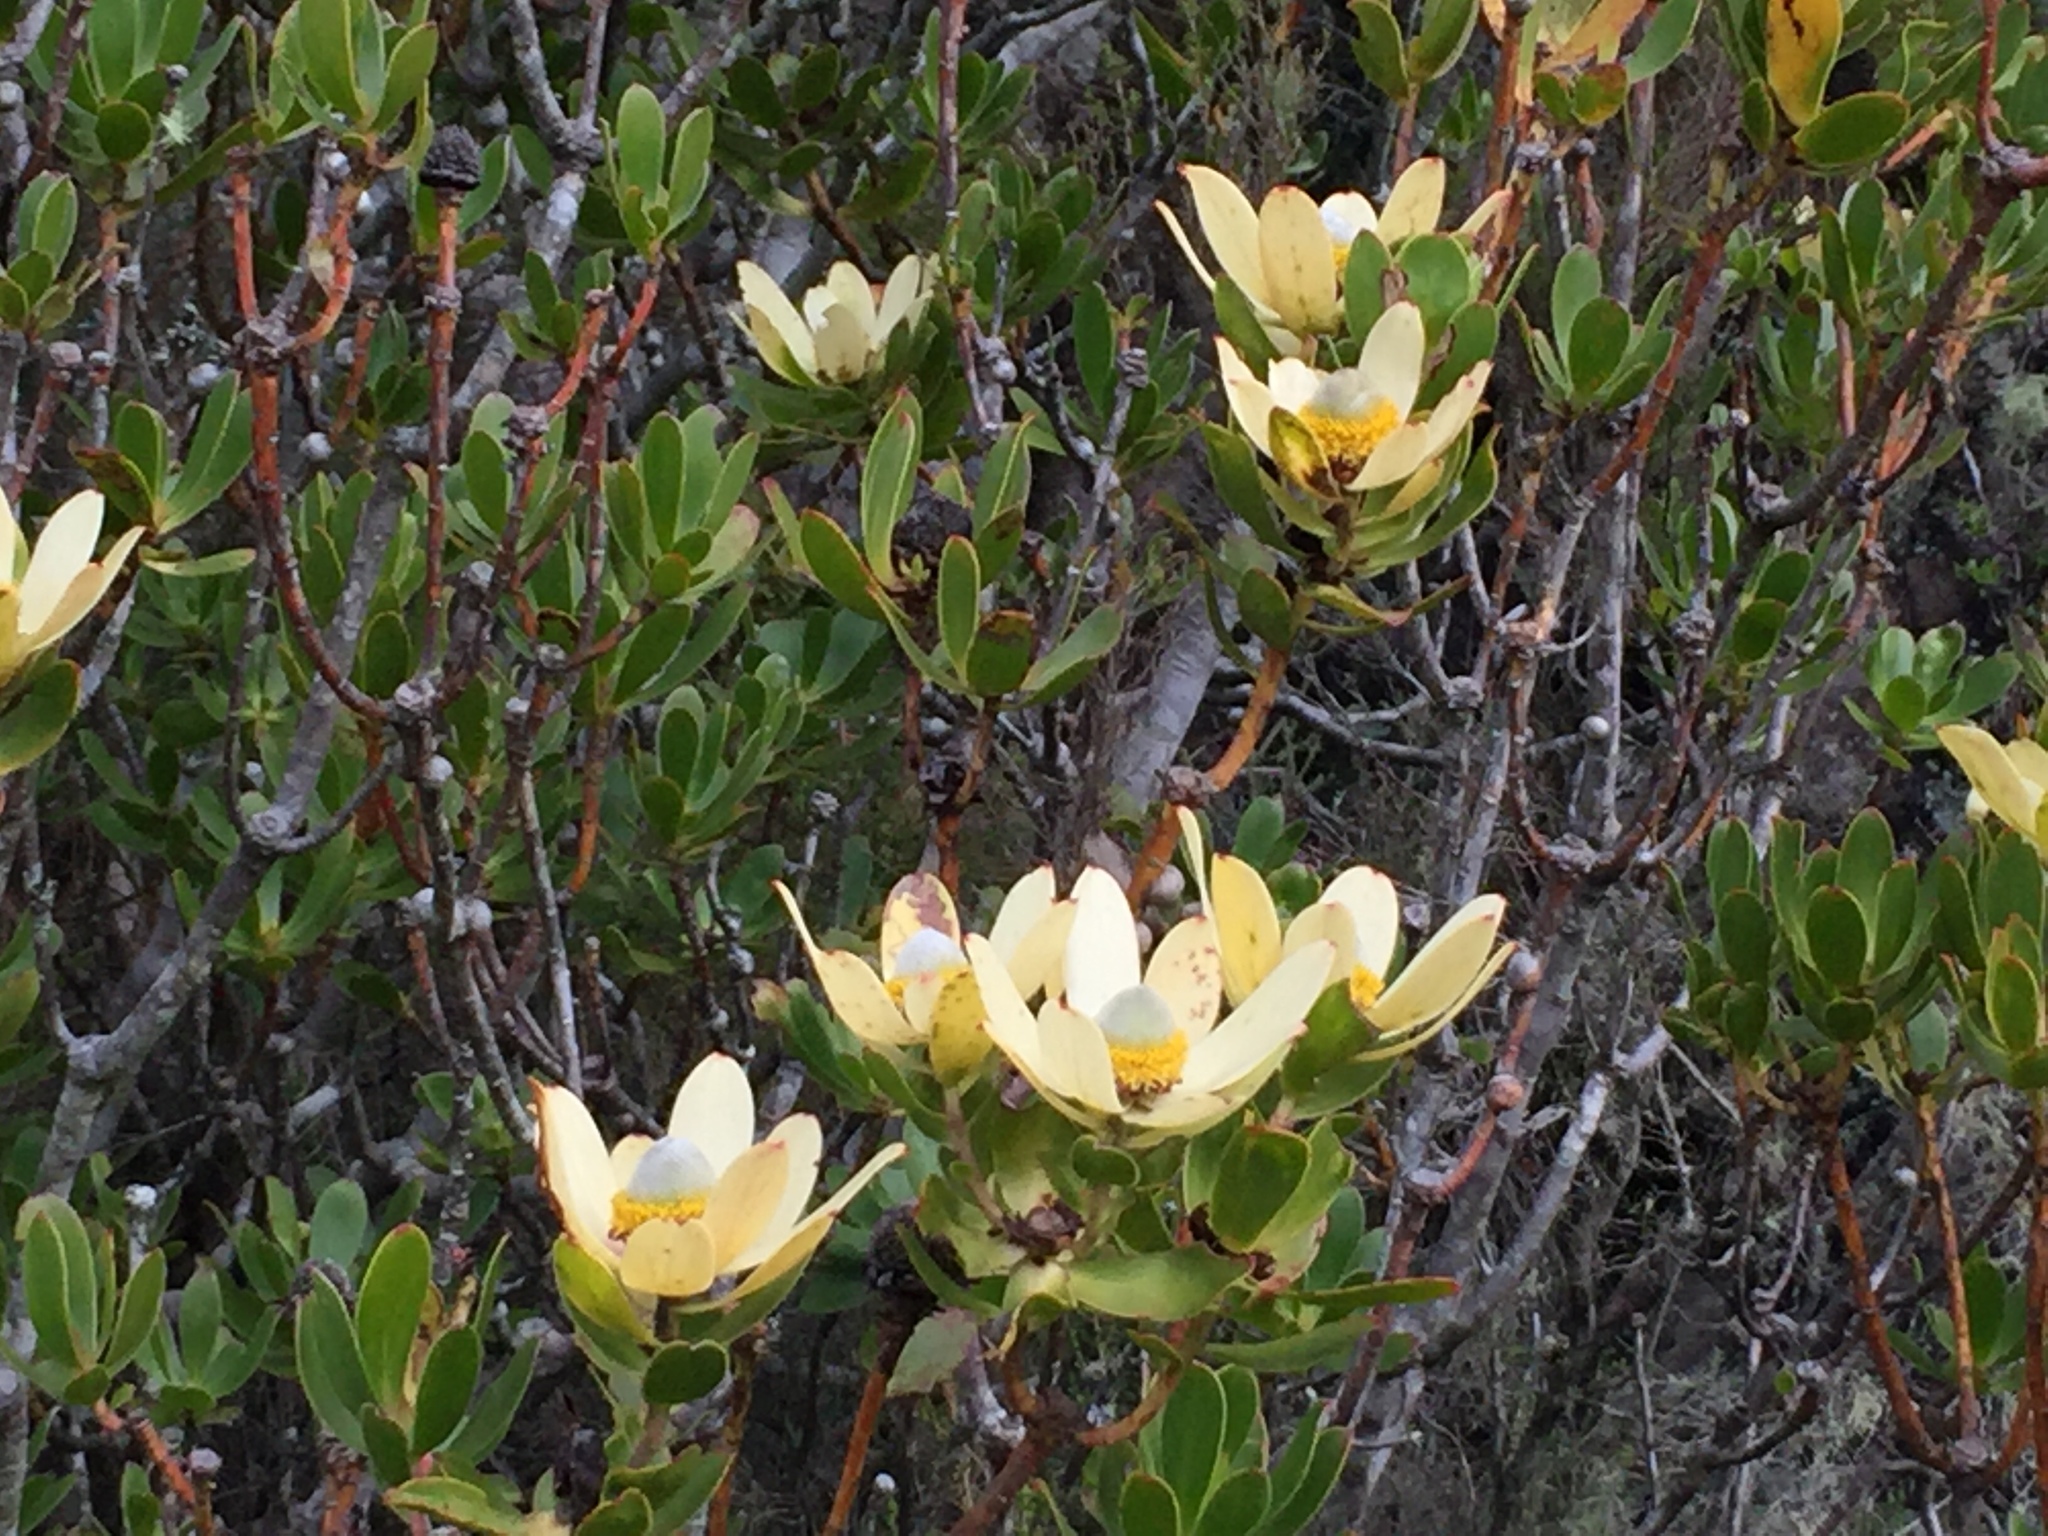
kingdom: Plantae
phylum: Tracheophyta
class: Magnoliopsida
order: Proteales
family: Proteaceae
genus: Leucadendron
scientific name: Leucadendron strobilinum
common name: Mountain rose
